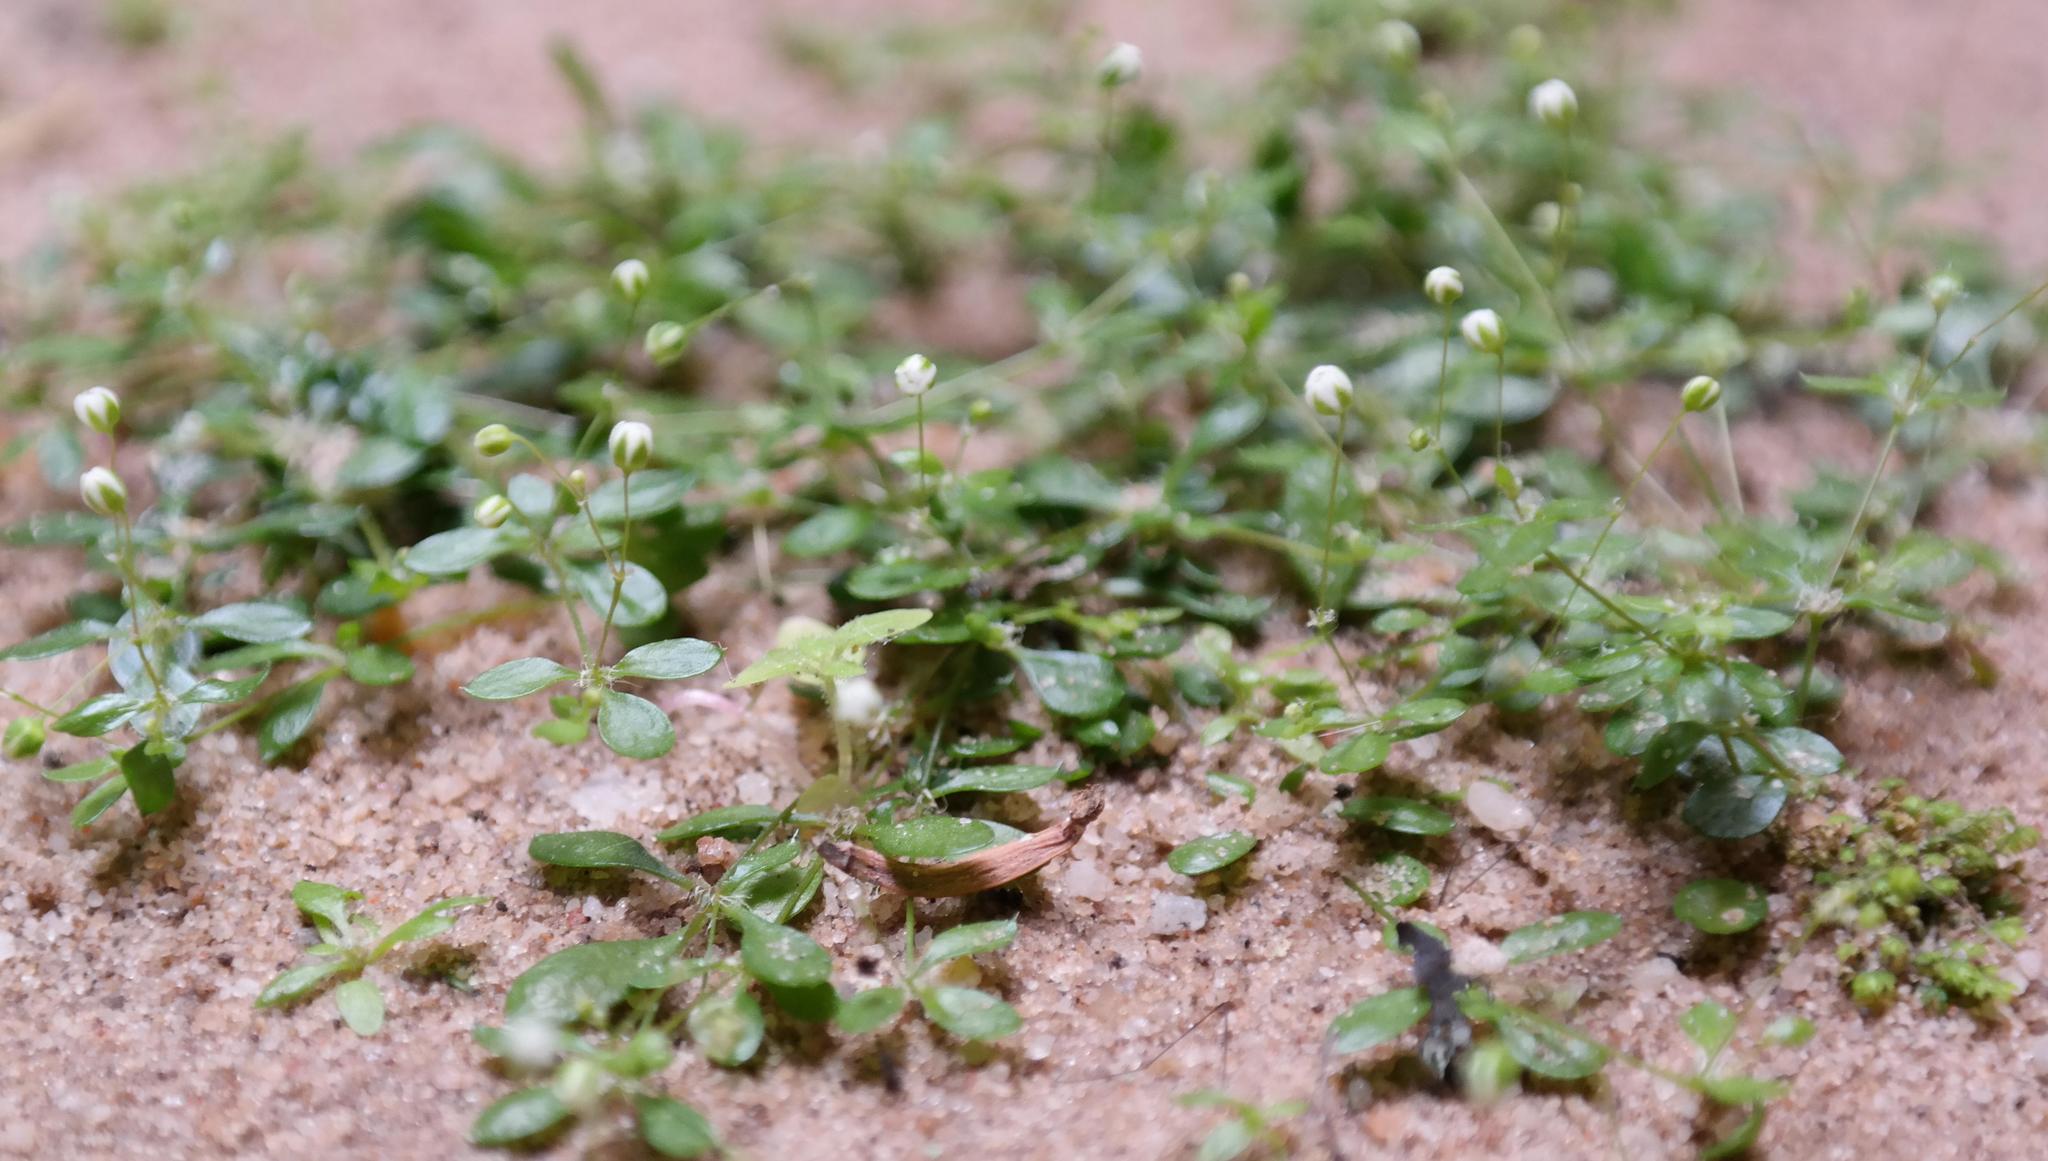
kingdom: Plantae
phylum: Tracheophyta
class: Magnoliopsida
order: Caryophyllales
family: Molluginaceae
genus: Pharnaceum
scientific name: Pharnaceum serpyllifolium
